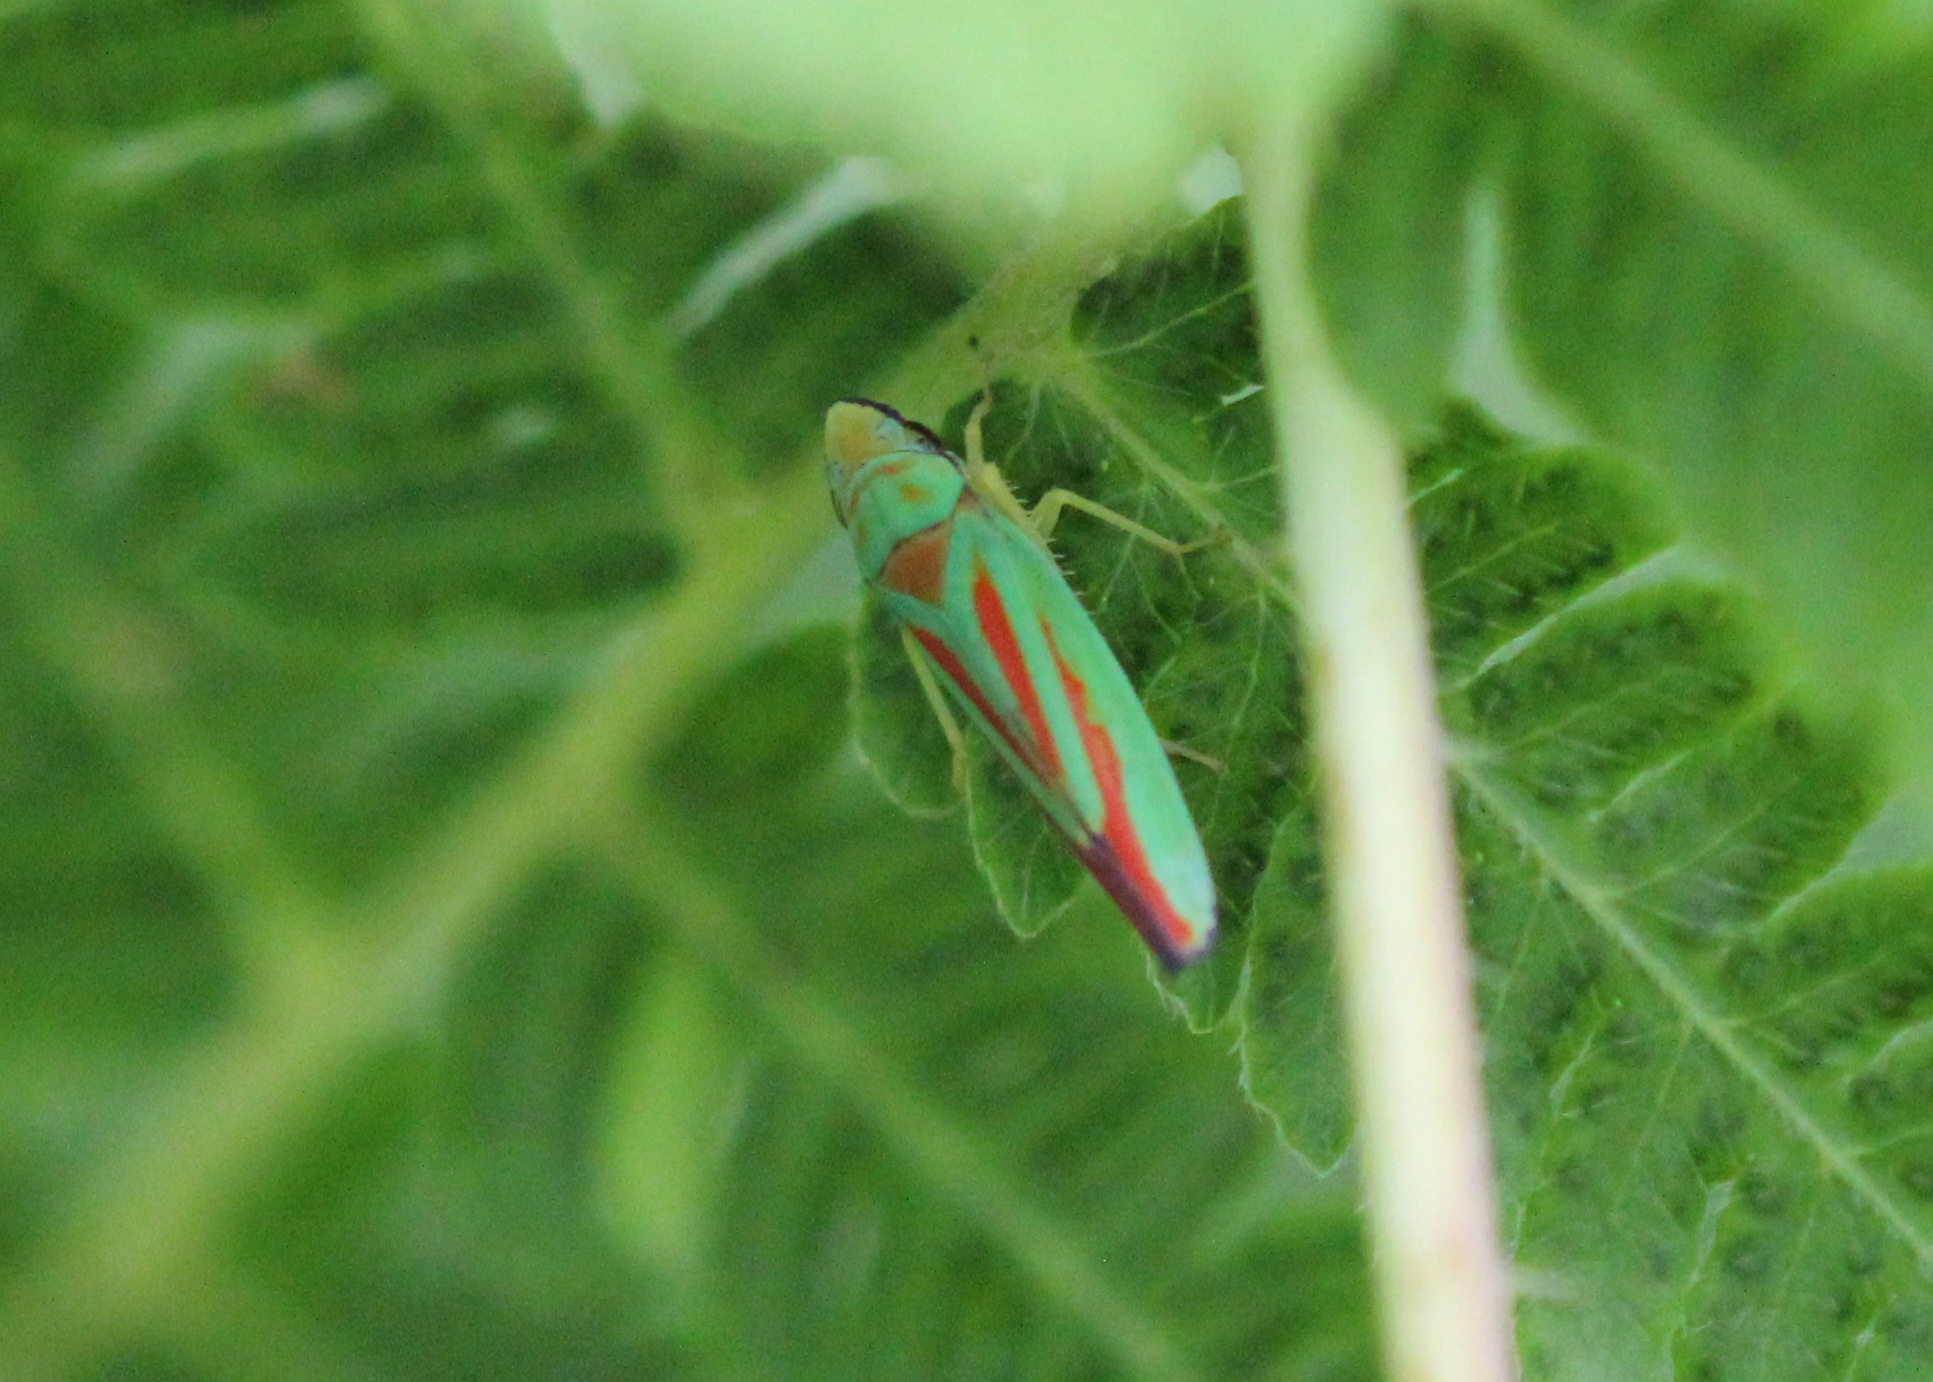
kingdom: Animalia
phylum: Arthropoda
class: Insecta
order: Hemiptera
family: Cicadellidae
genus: Graphocephala
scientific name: Graphocephala fennahi
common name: Rhododendron leafhopper
